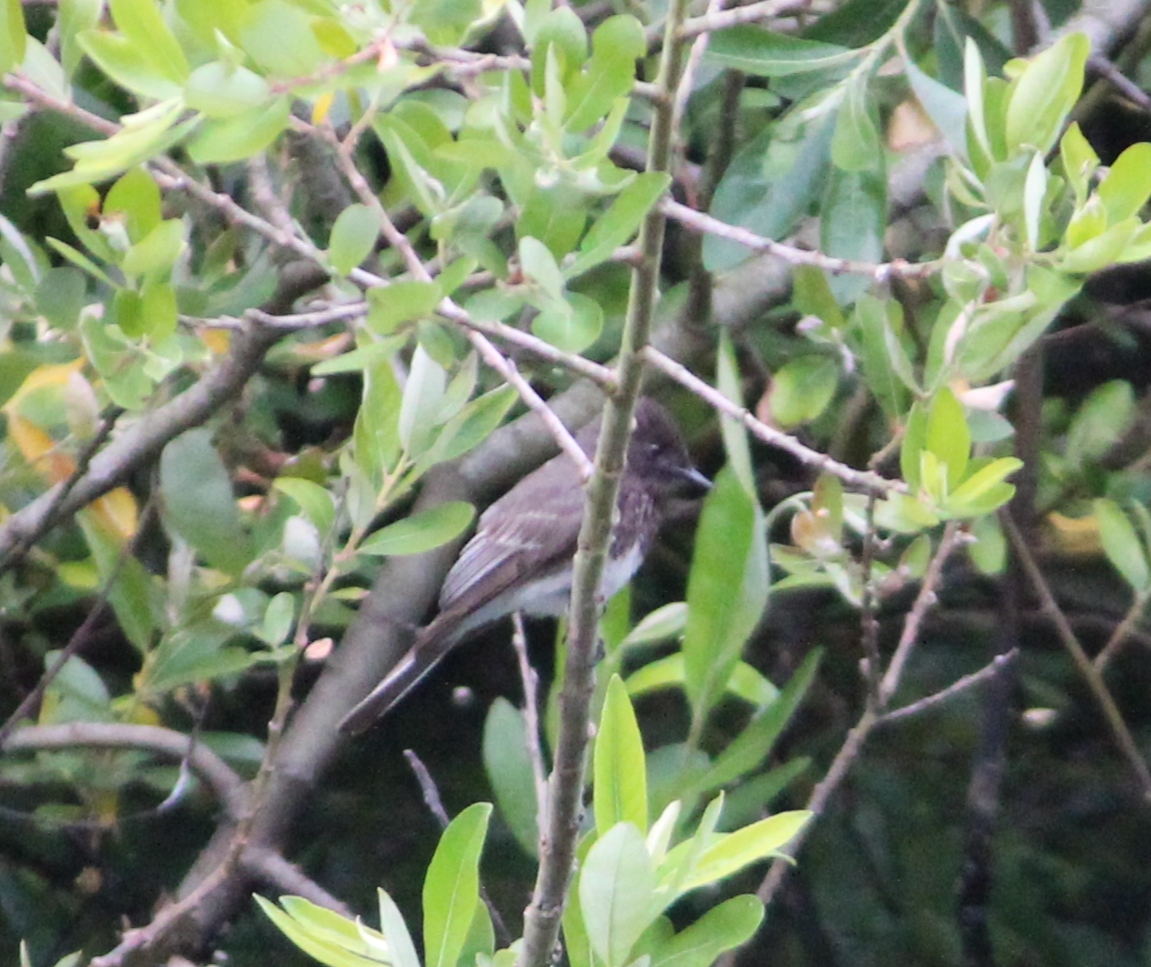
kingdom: Animalia
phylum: Chordata
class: Aves
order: Passeriformes
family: Tyrannidae
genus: Sayornis
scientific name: Sayornis nigricans
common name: Black phoebe
